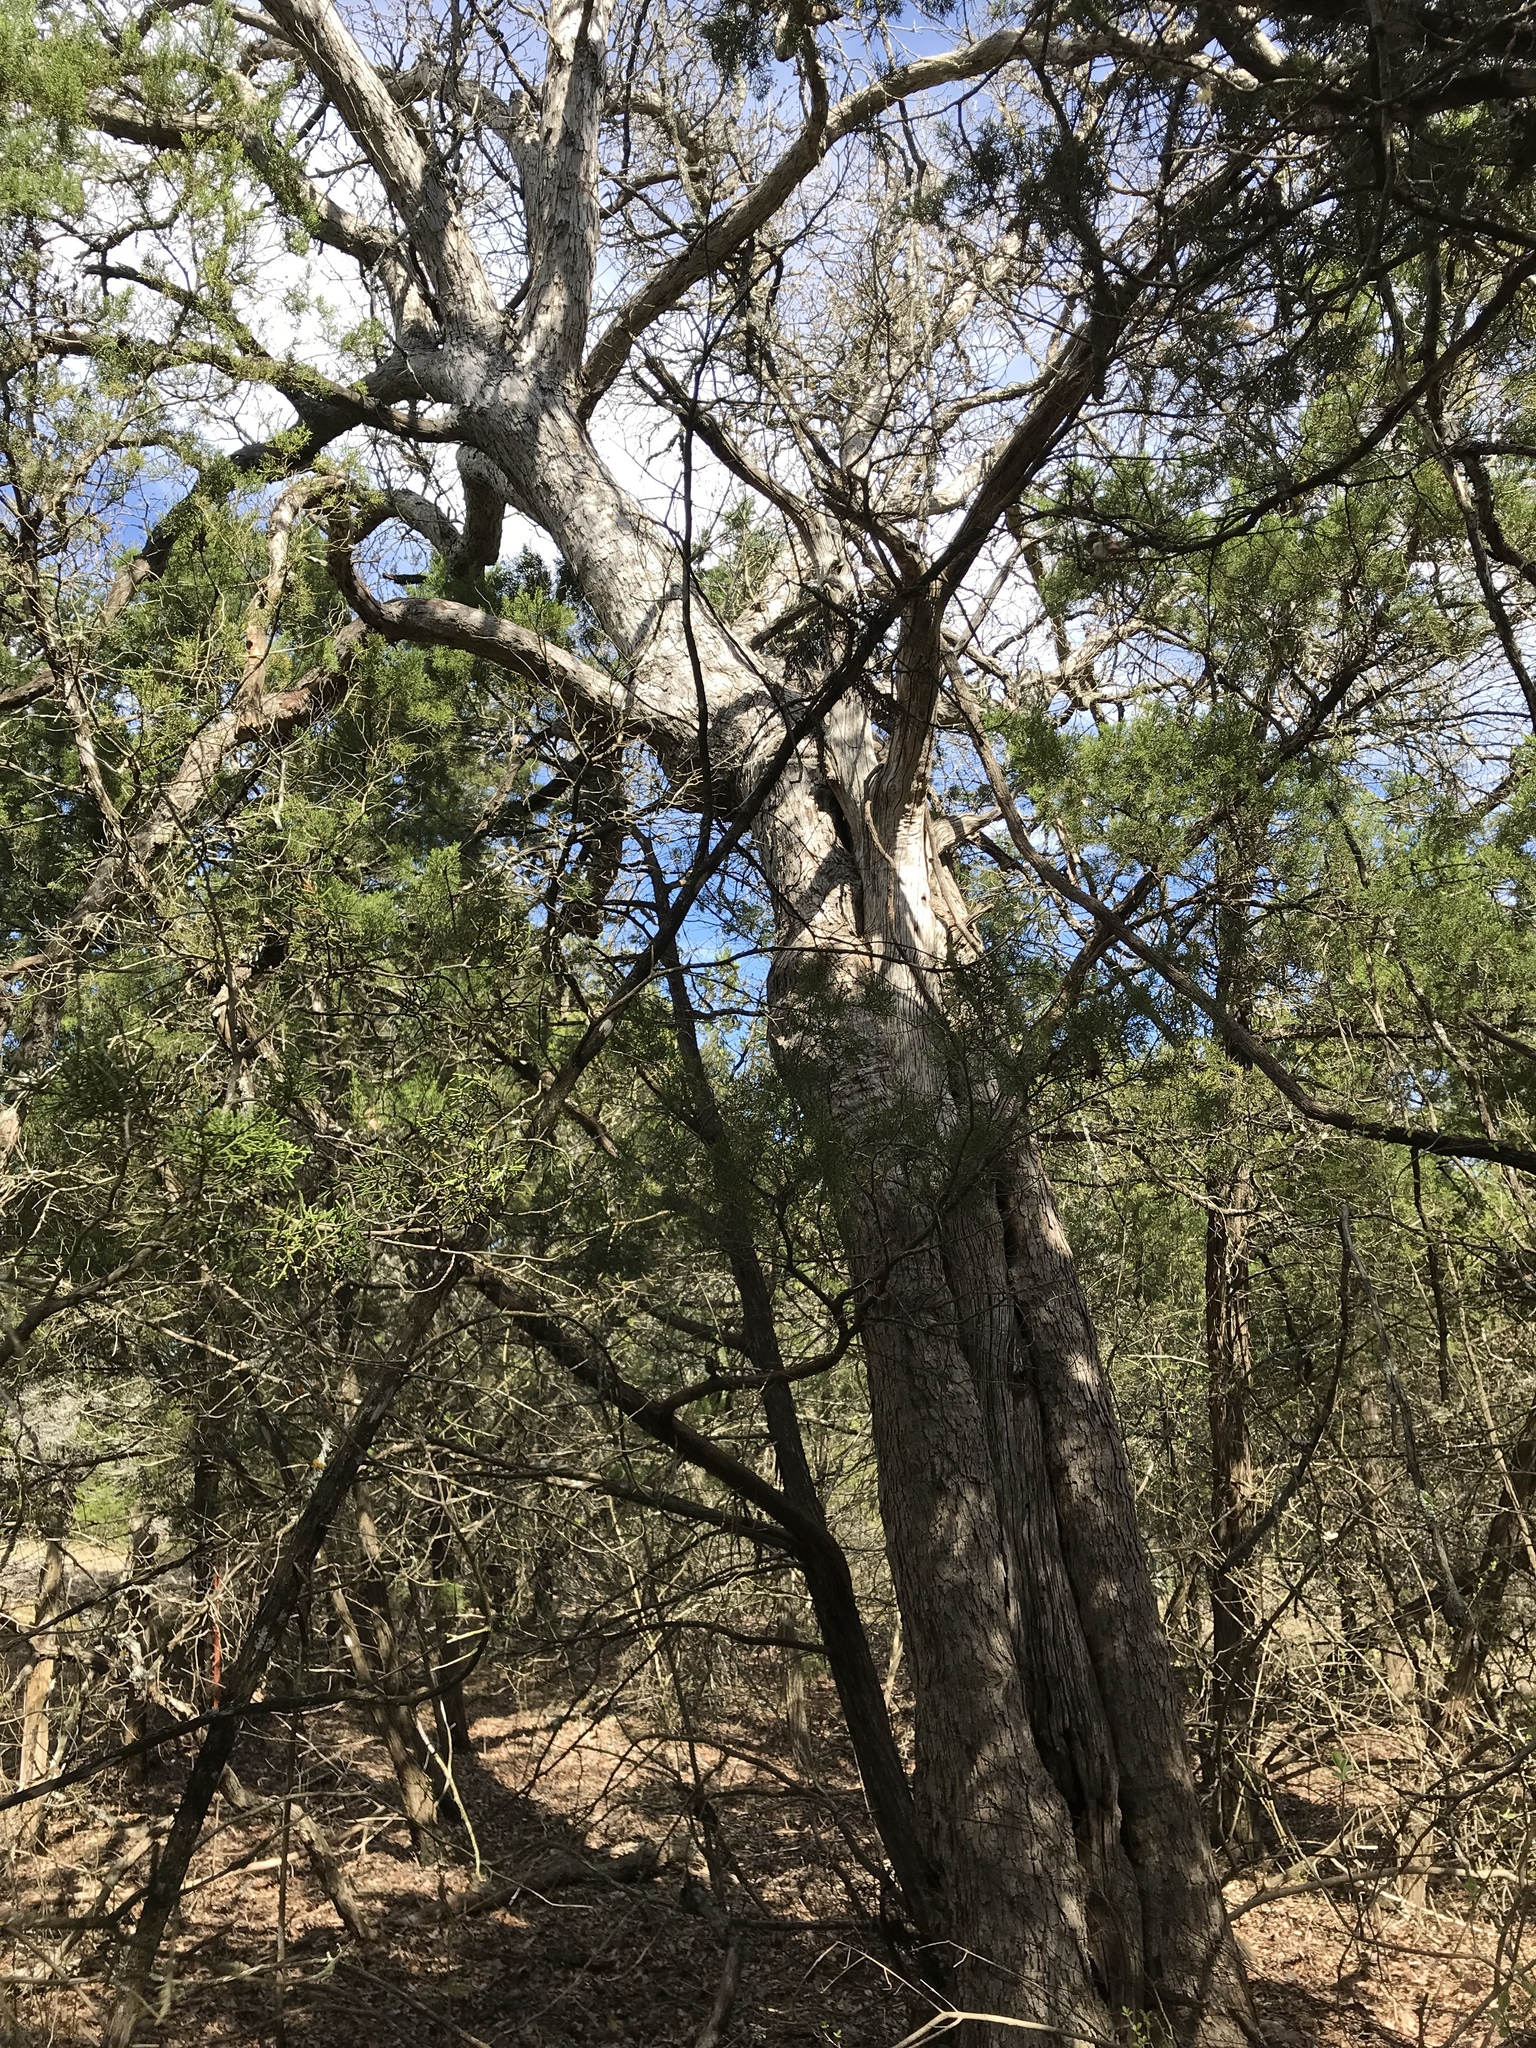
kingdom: Plantae
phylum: Tracheophyta
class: Magnoliopsida
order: Fagales
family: Fagaceae
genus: Quercus
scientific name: Quercus sinuata
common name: Durand oak
